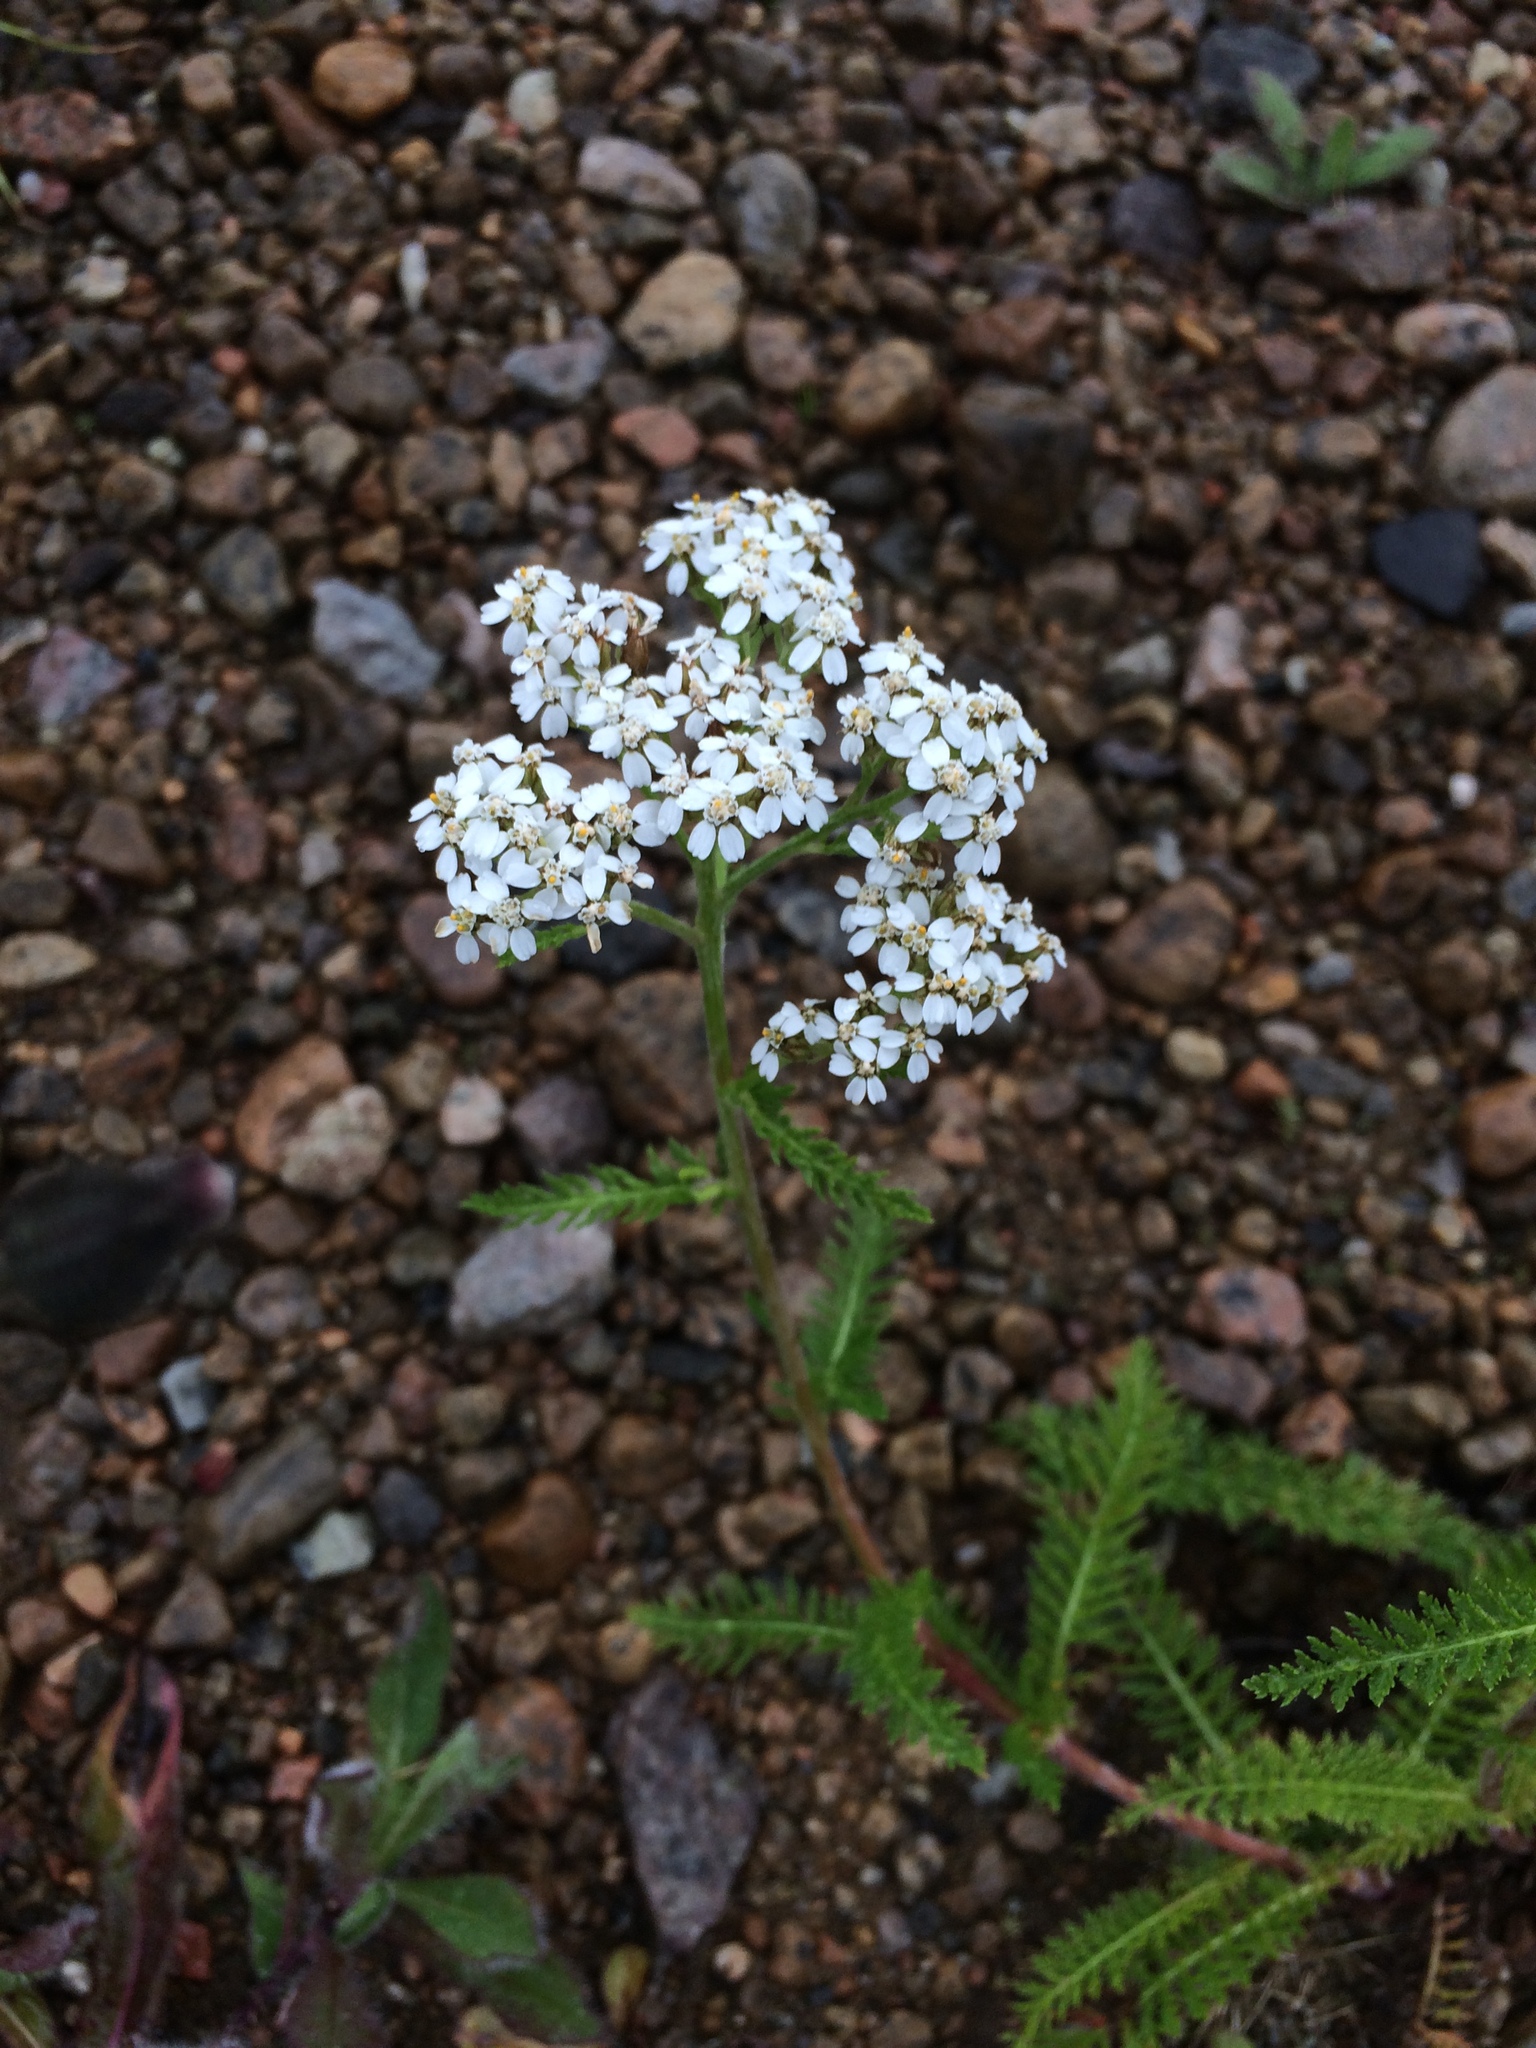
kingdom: Plantae
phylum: Tracheophyta
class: Magnoliopsida
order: Asterales
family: Asteraceae
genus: Achillea
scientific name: Achillea millefolium
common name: Yarrow
